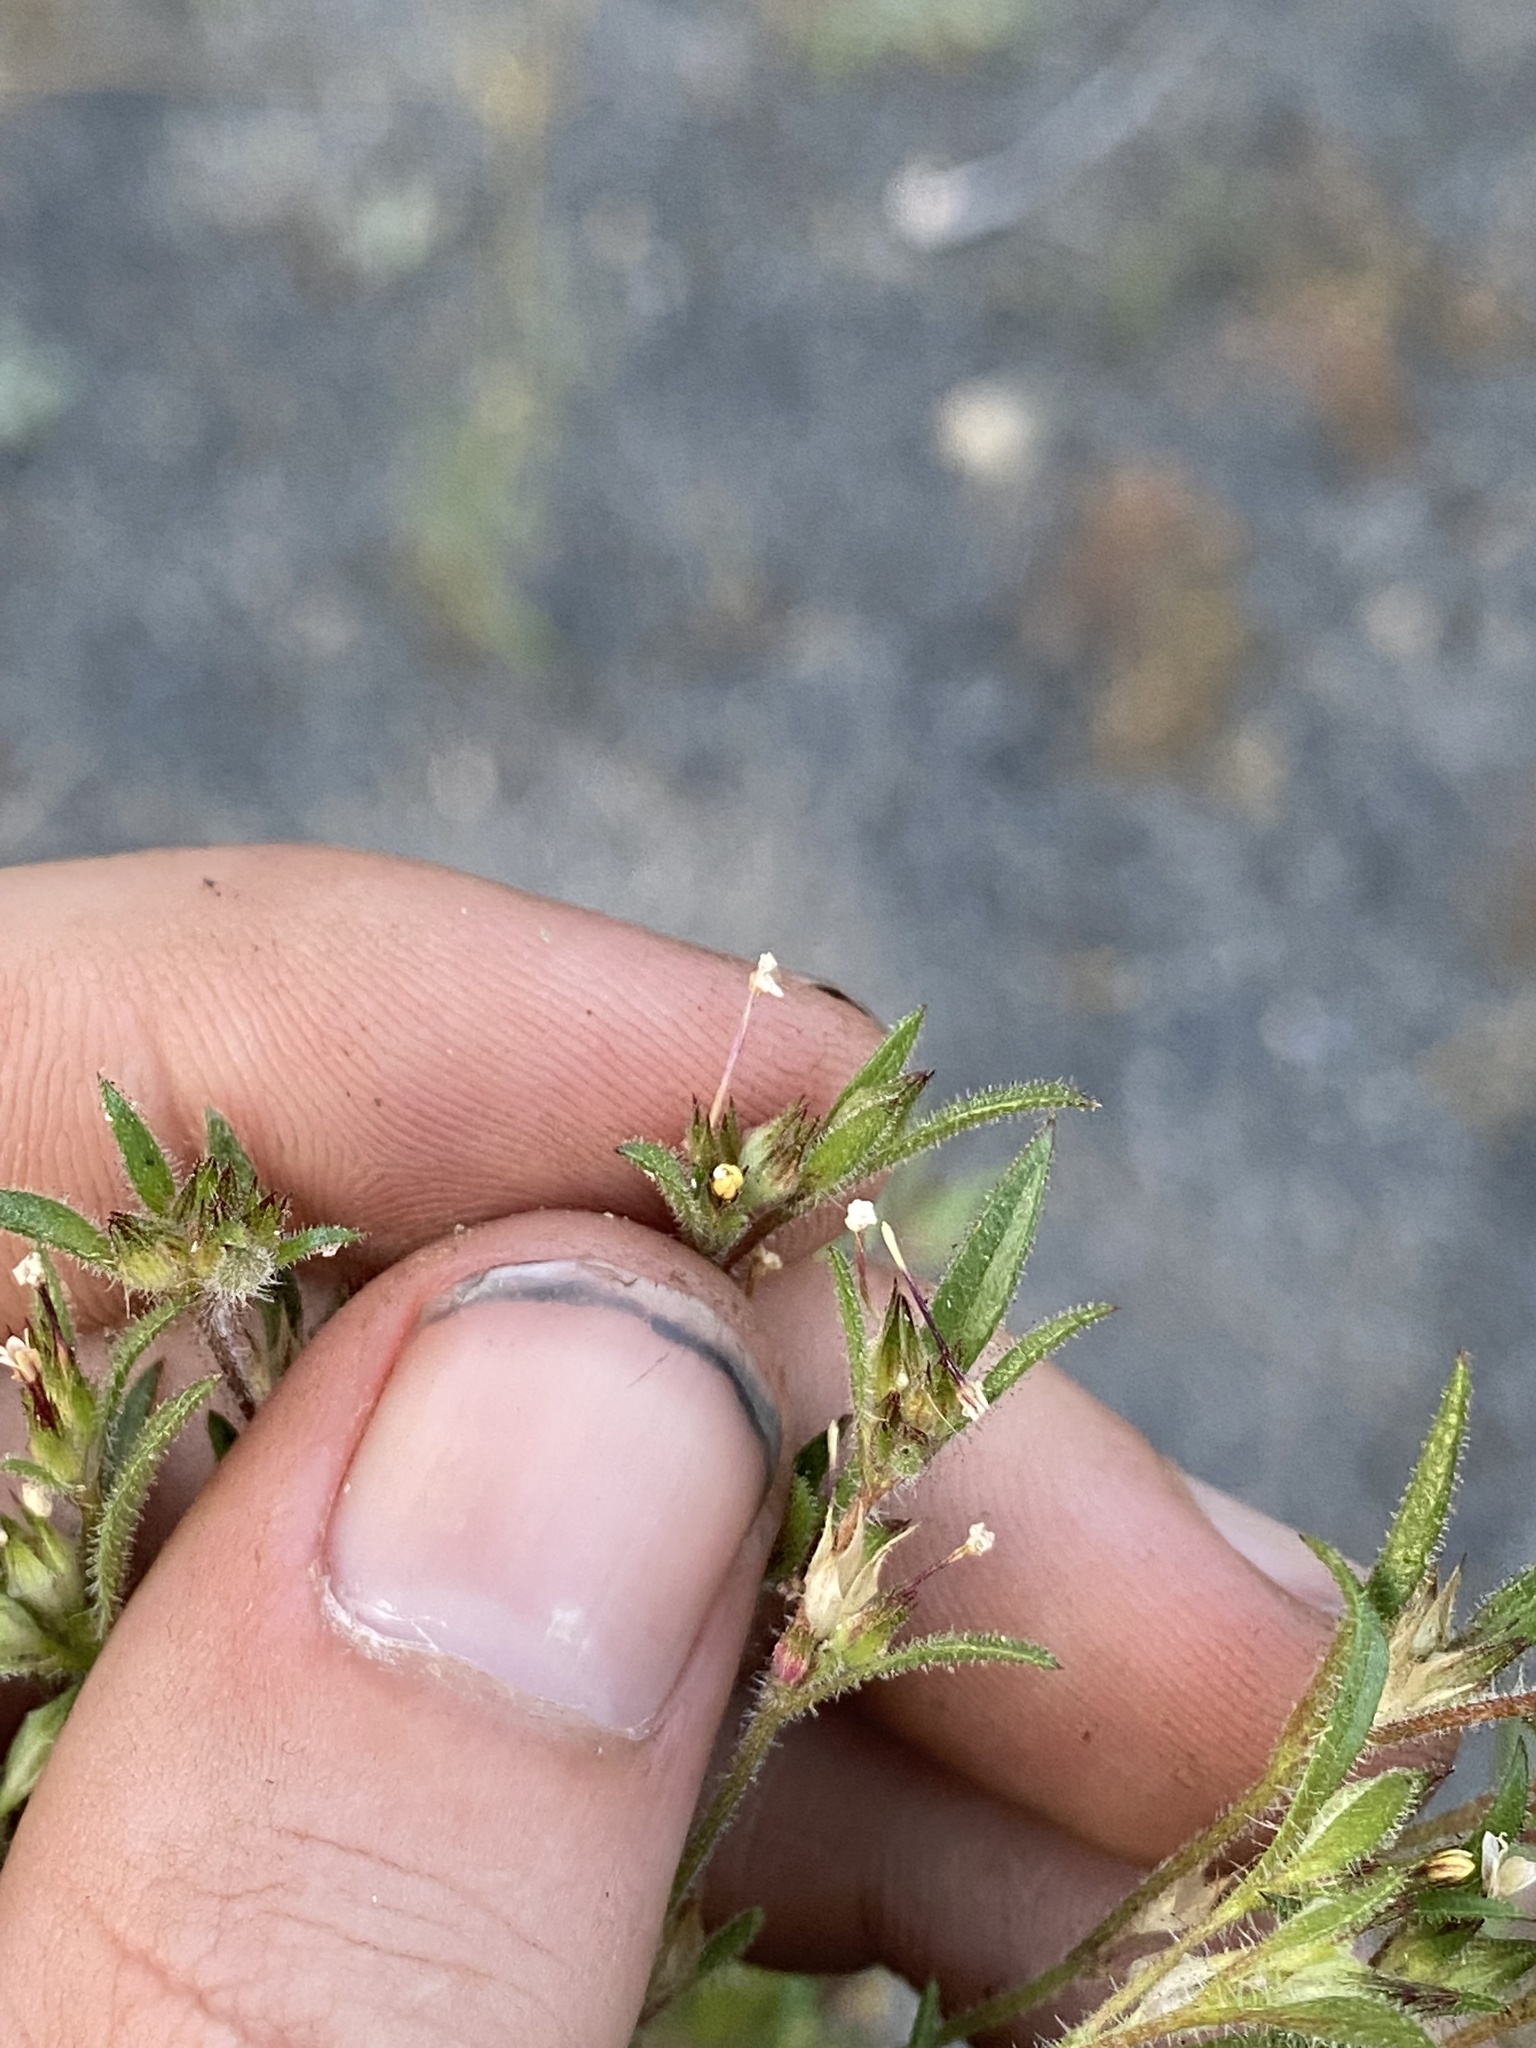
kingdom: Plantae
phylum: Tracheophyta
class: Magnoliopsida
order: Ericales
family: Polemoniaceae
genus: Collomia
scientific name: Collomia linearis
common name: Tiny trumpet
